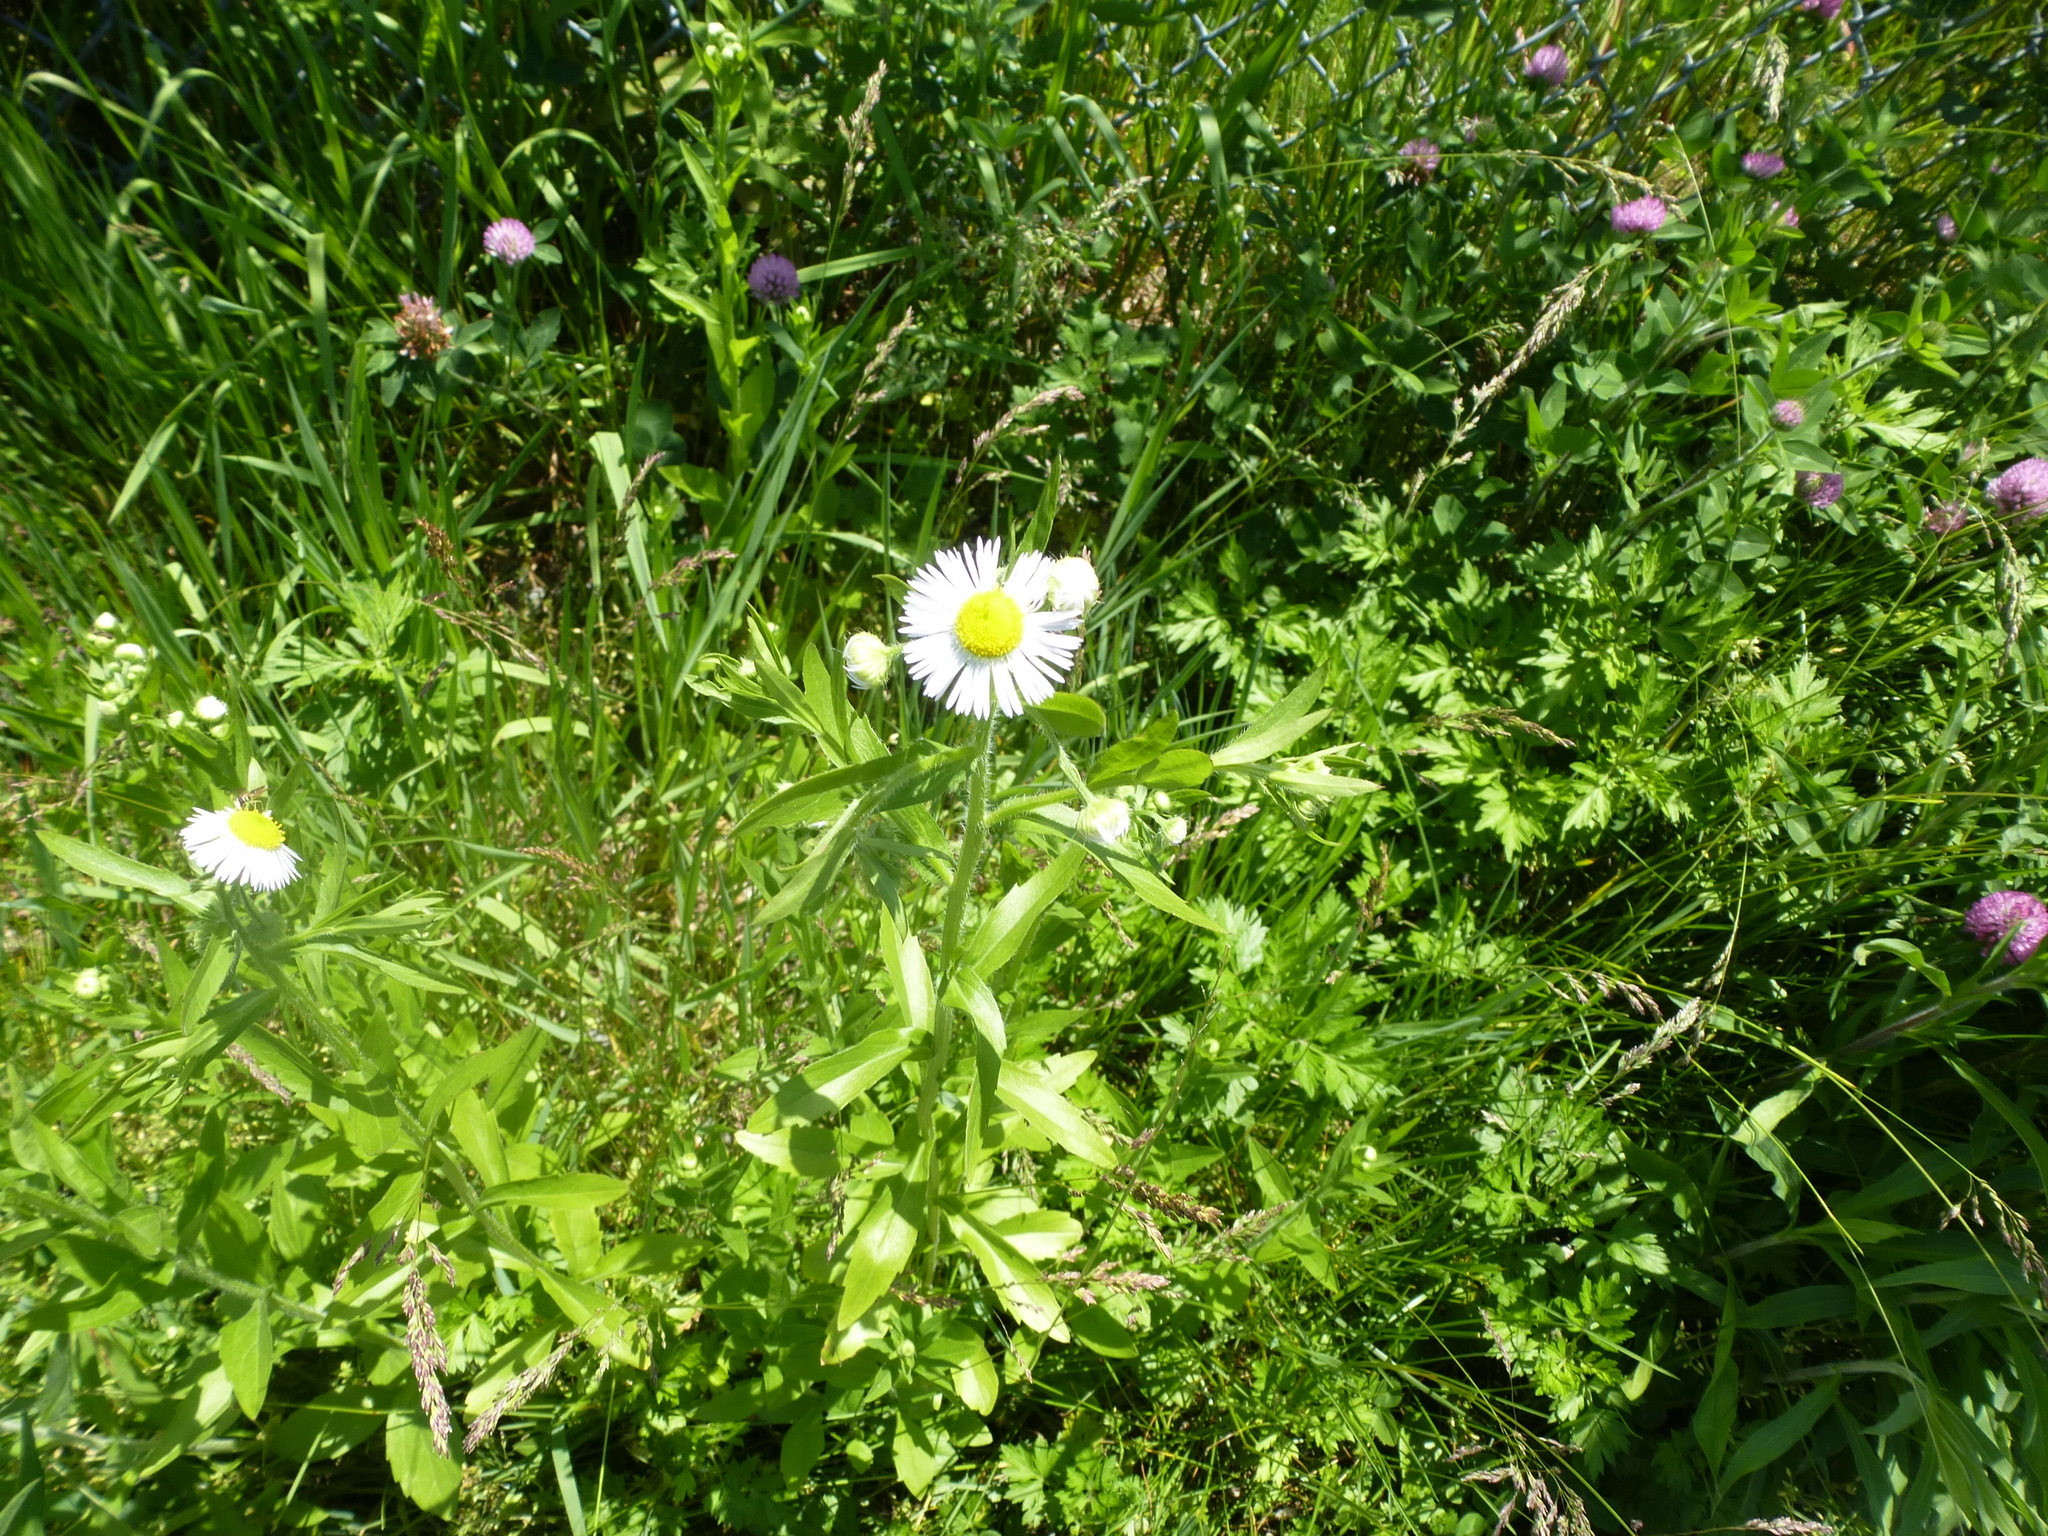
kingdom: Plantae
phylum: Tracheophyta
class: Magnoliopsida
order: Asterales
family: Asteraceae
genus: Erigeron
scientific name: Erigeron annuus
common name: Tall fleabane
